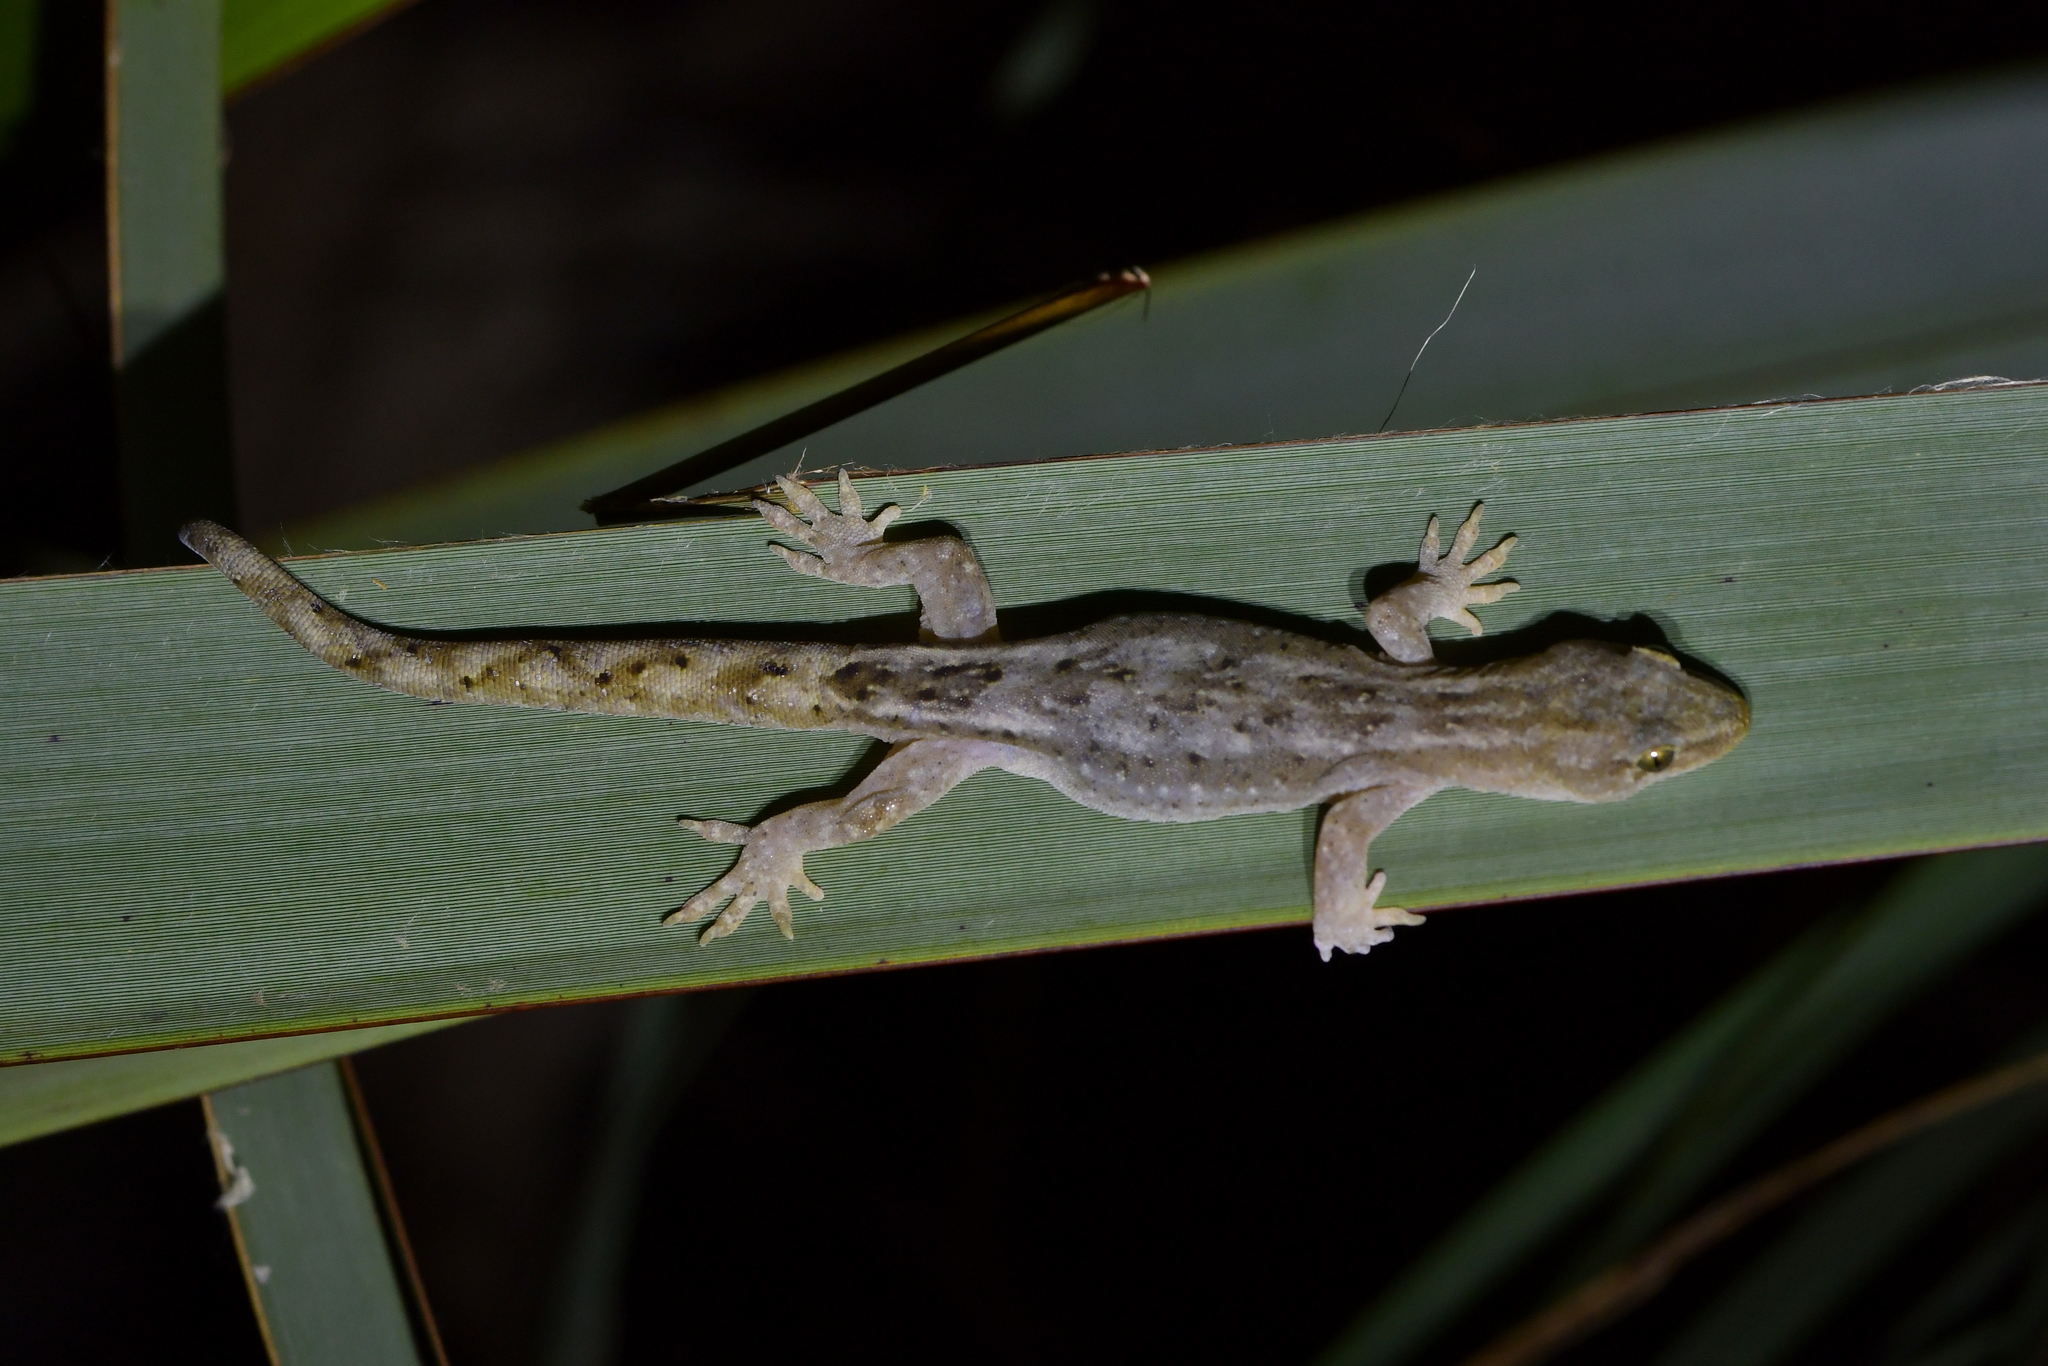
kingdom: Animalia
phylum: Chordata
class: Squamata
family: Diplodactylidae
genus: Woodworthia
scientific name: Woodworthia maculata
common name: Raukawa gecko
